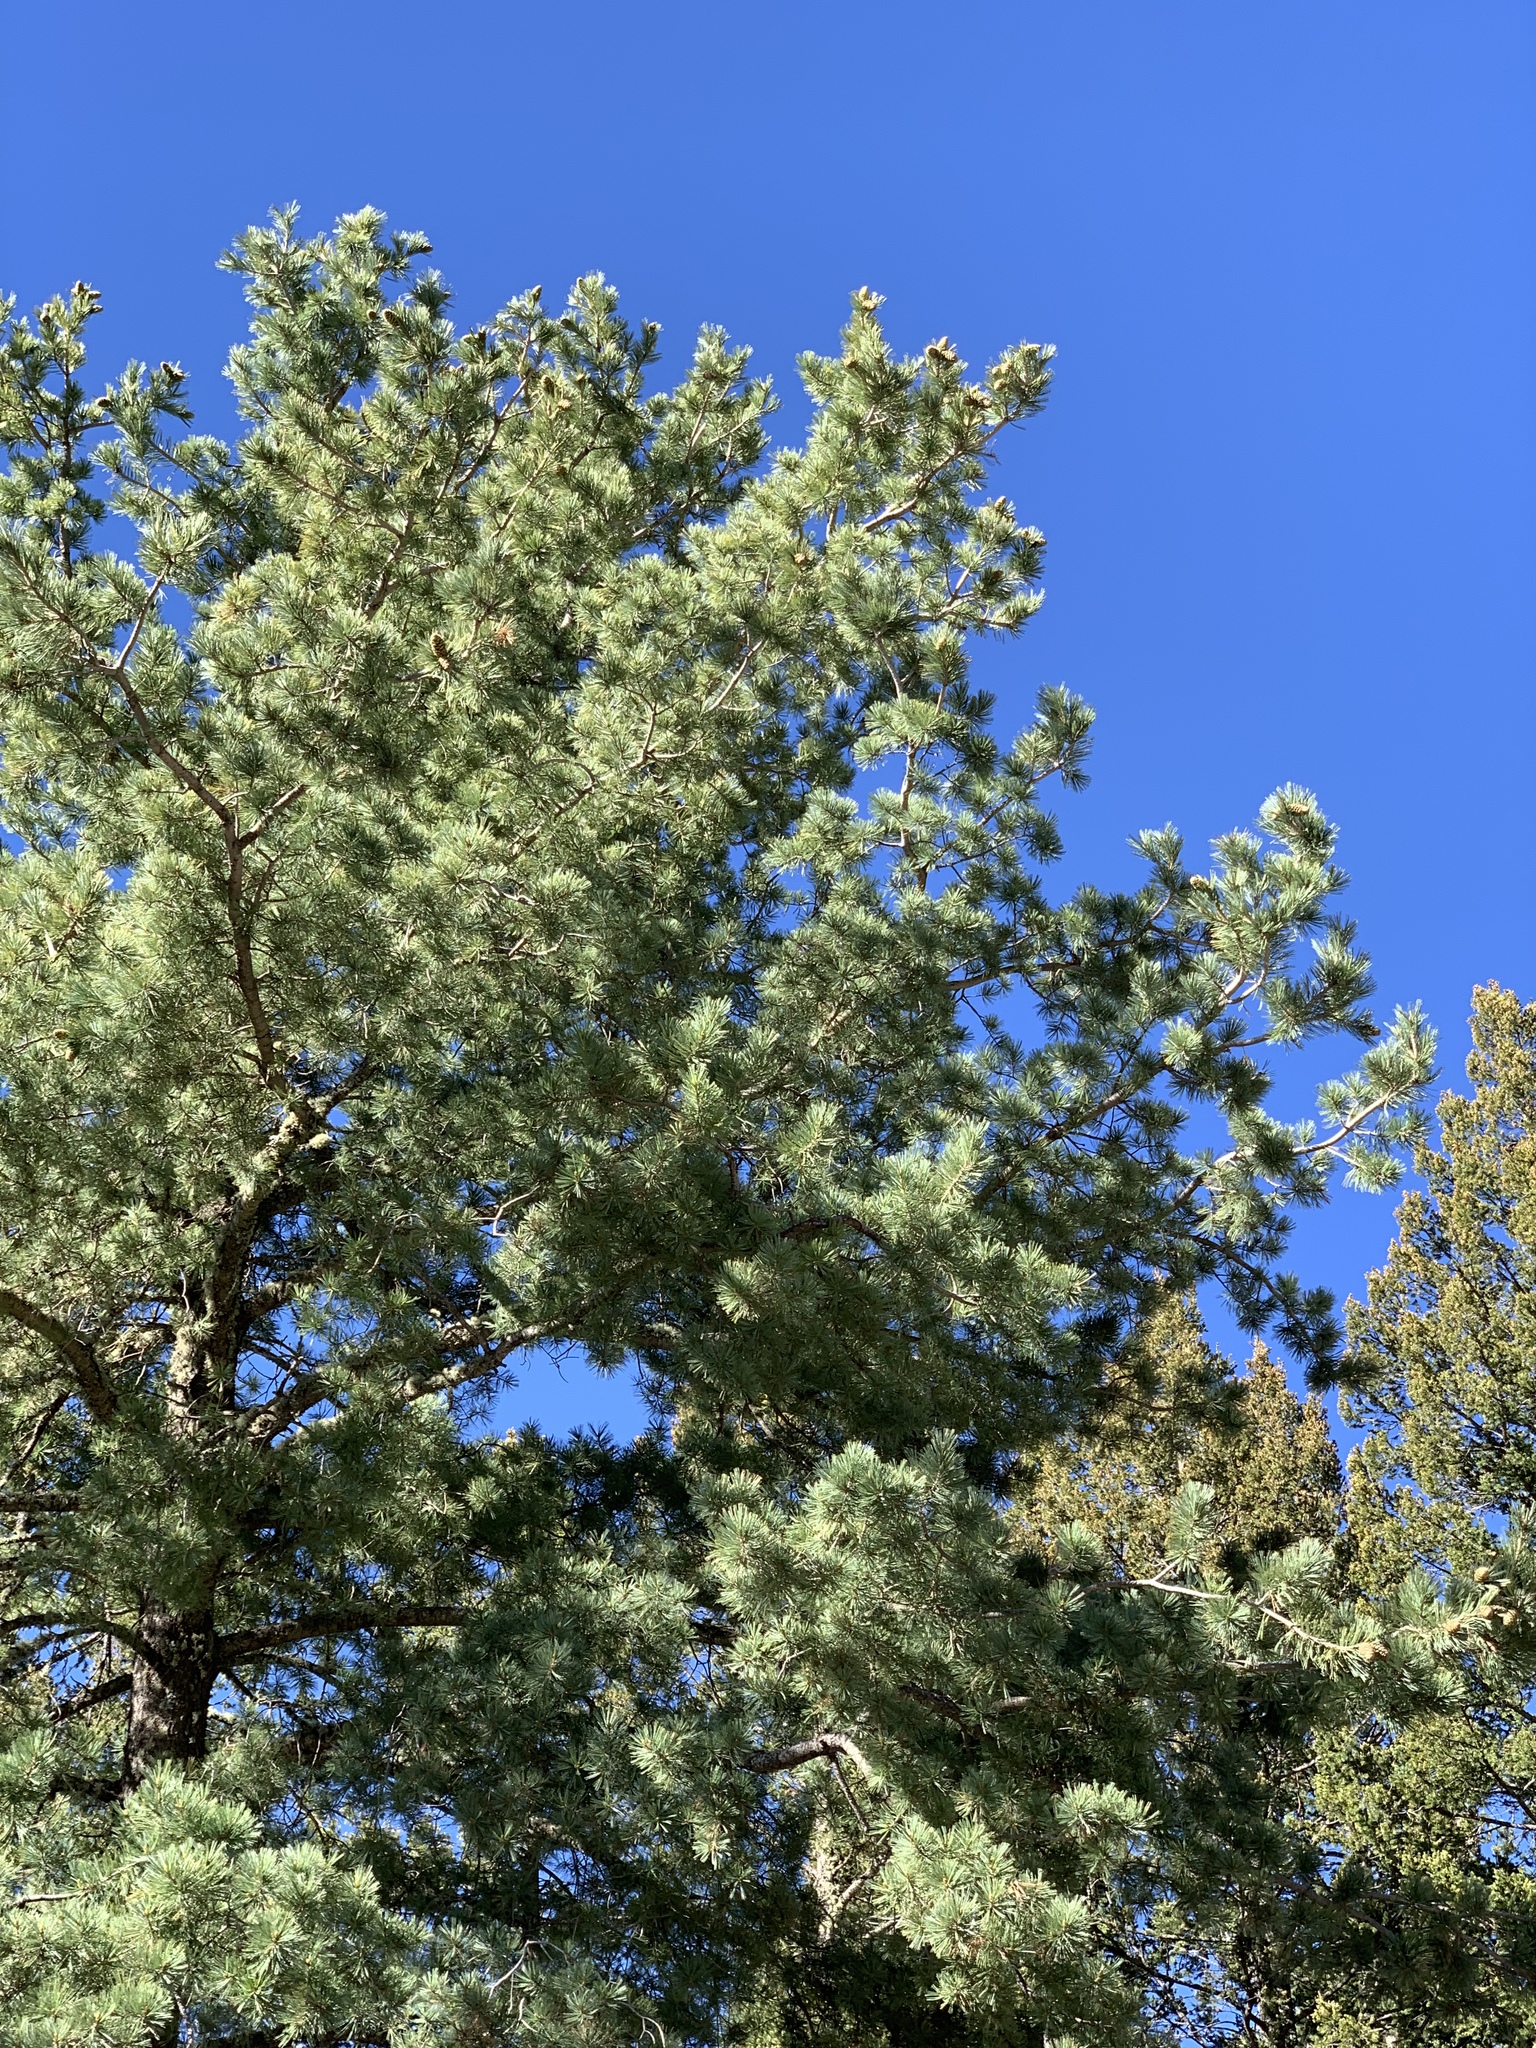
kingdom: Plantae
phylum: Tracheophyta
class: Pinopsida
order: Pinales
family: Pinaceae
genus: Pinus
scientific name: Pinus strobiformis
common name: Southwestern white pine
